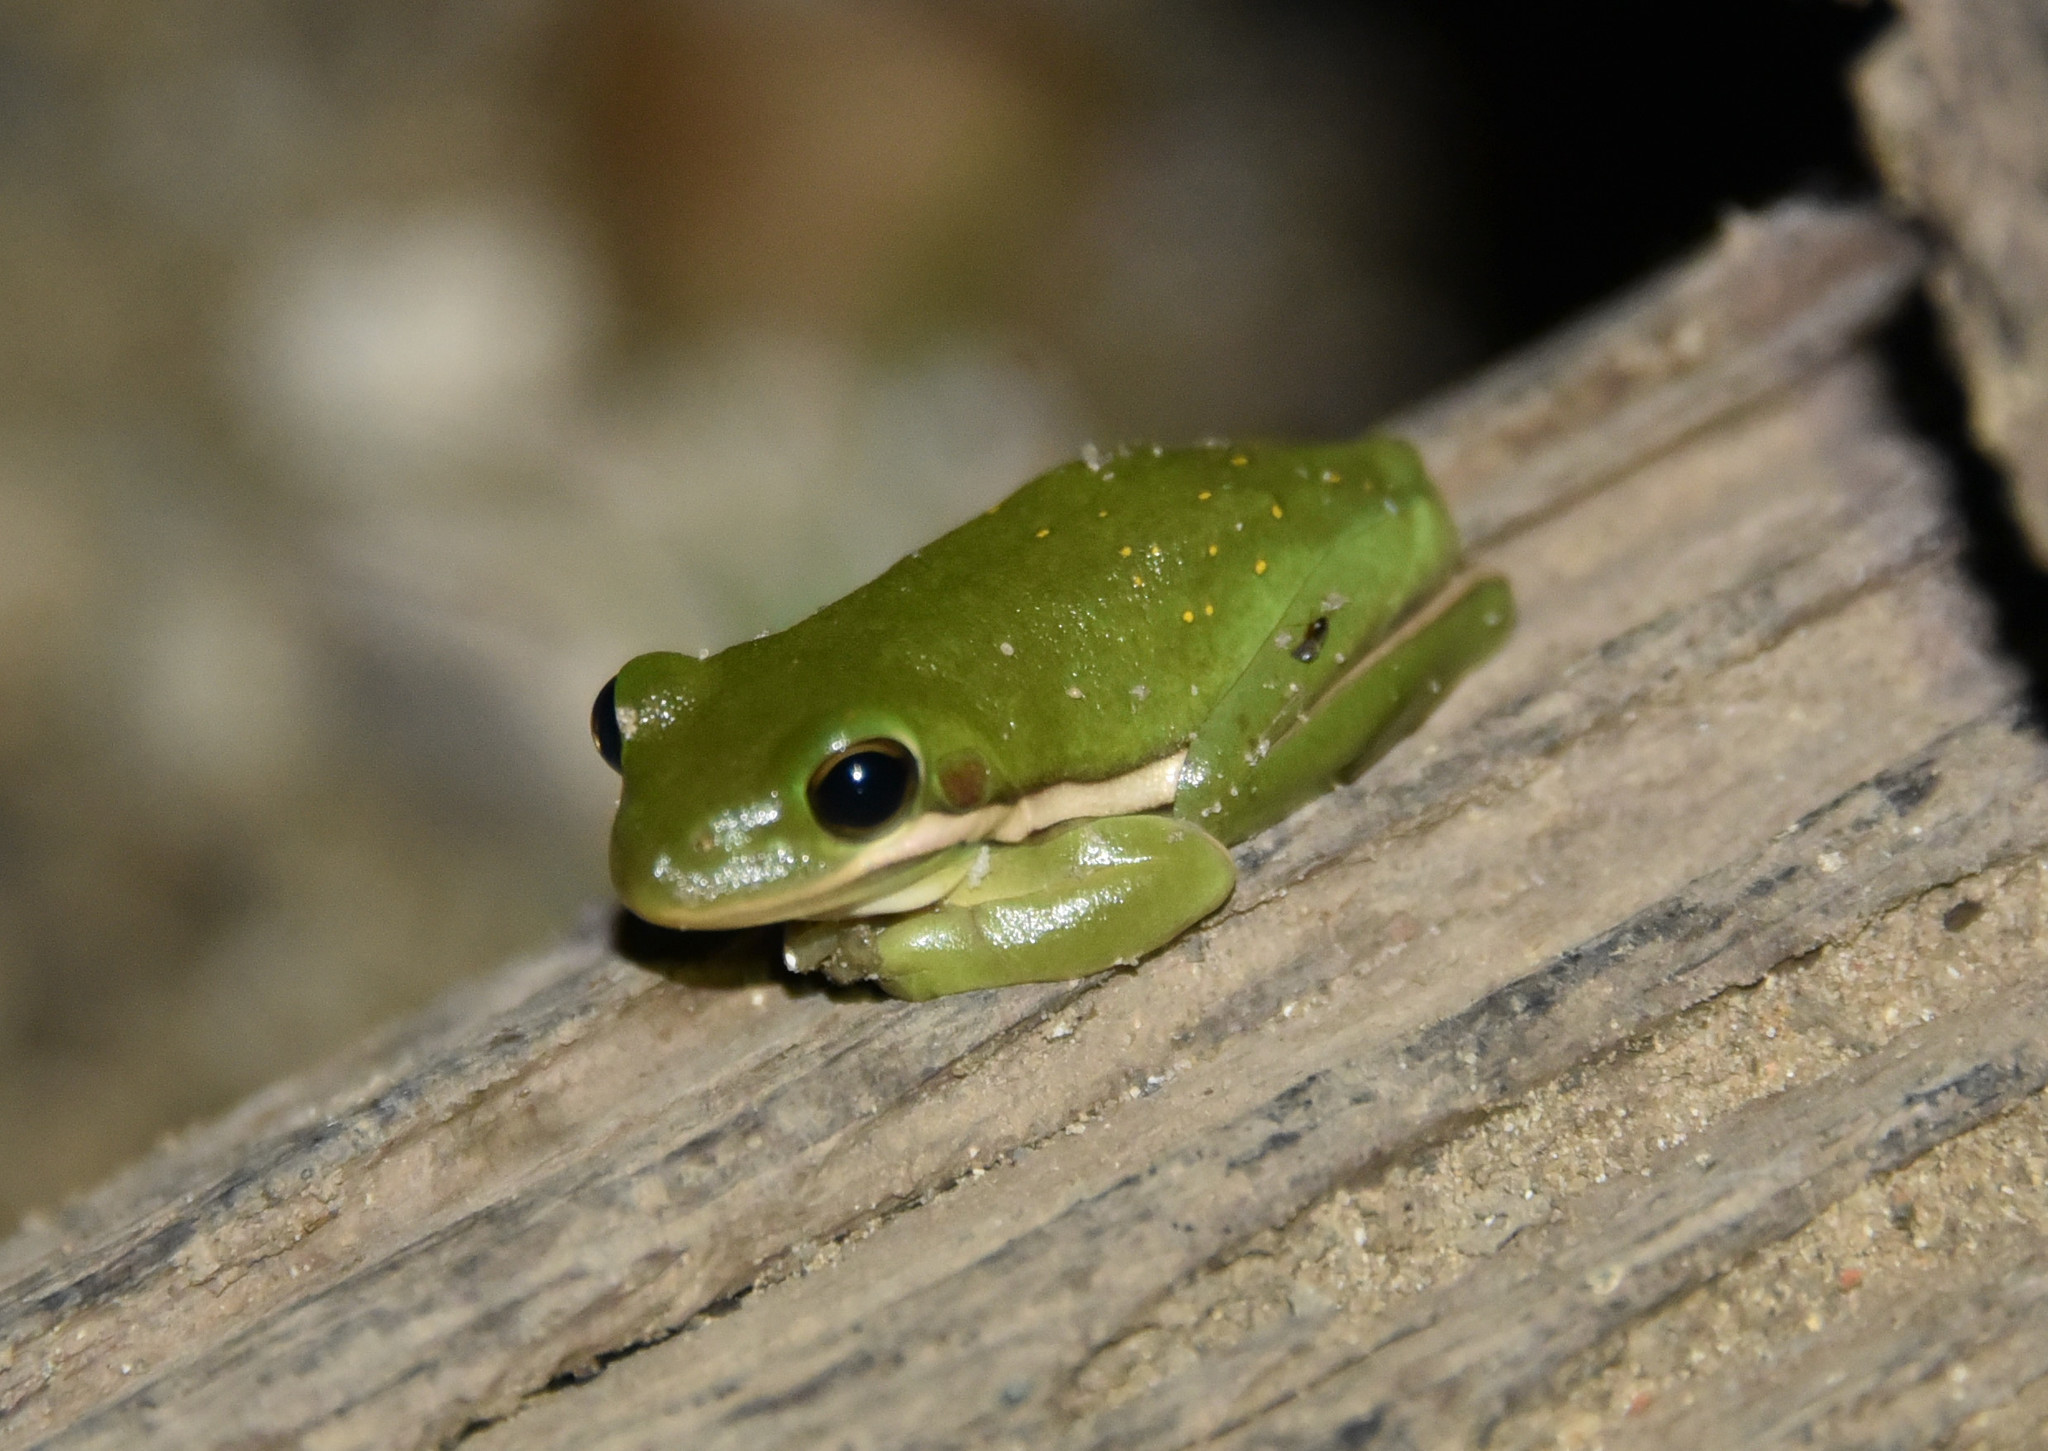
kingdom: Animalia
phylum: Chordata
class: Amphibia
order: Anura
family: Hylidae
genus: Dryophytes
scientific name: Dryophytes cinereus
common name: Green treefrog
